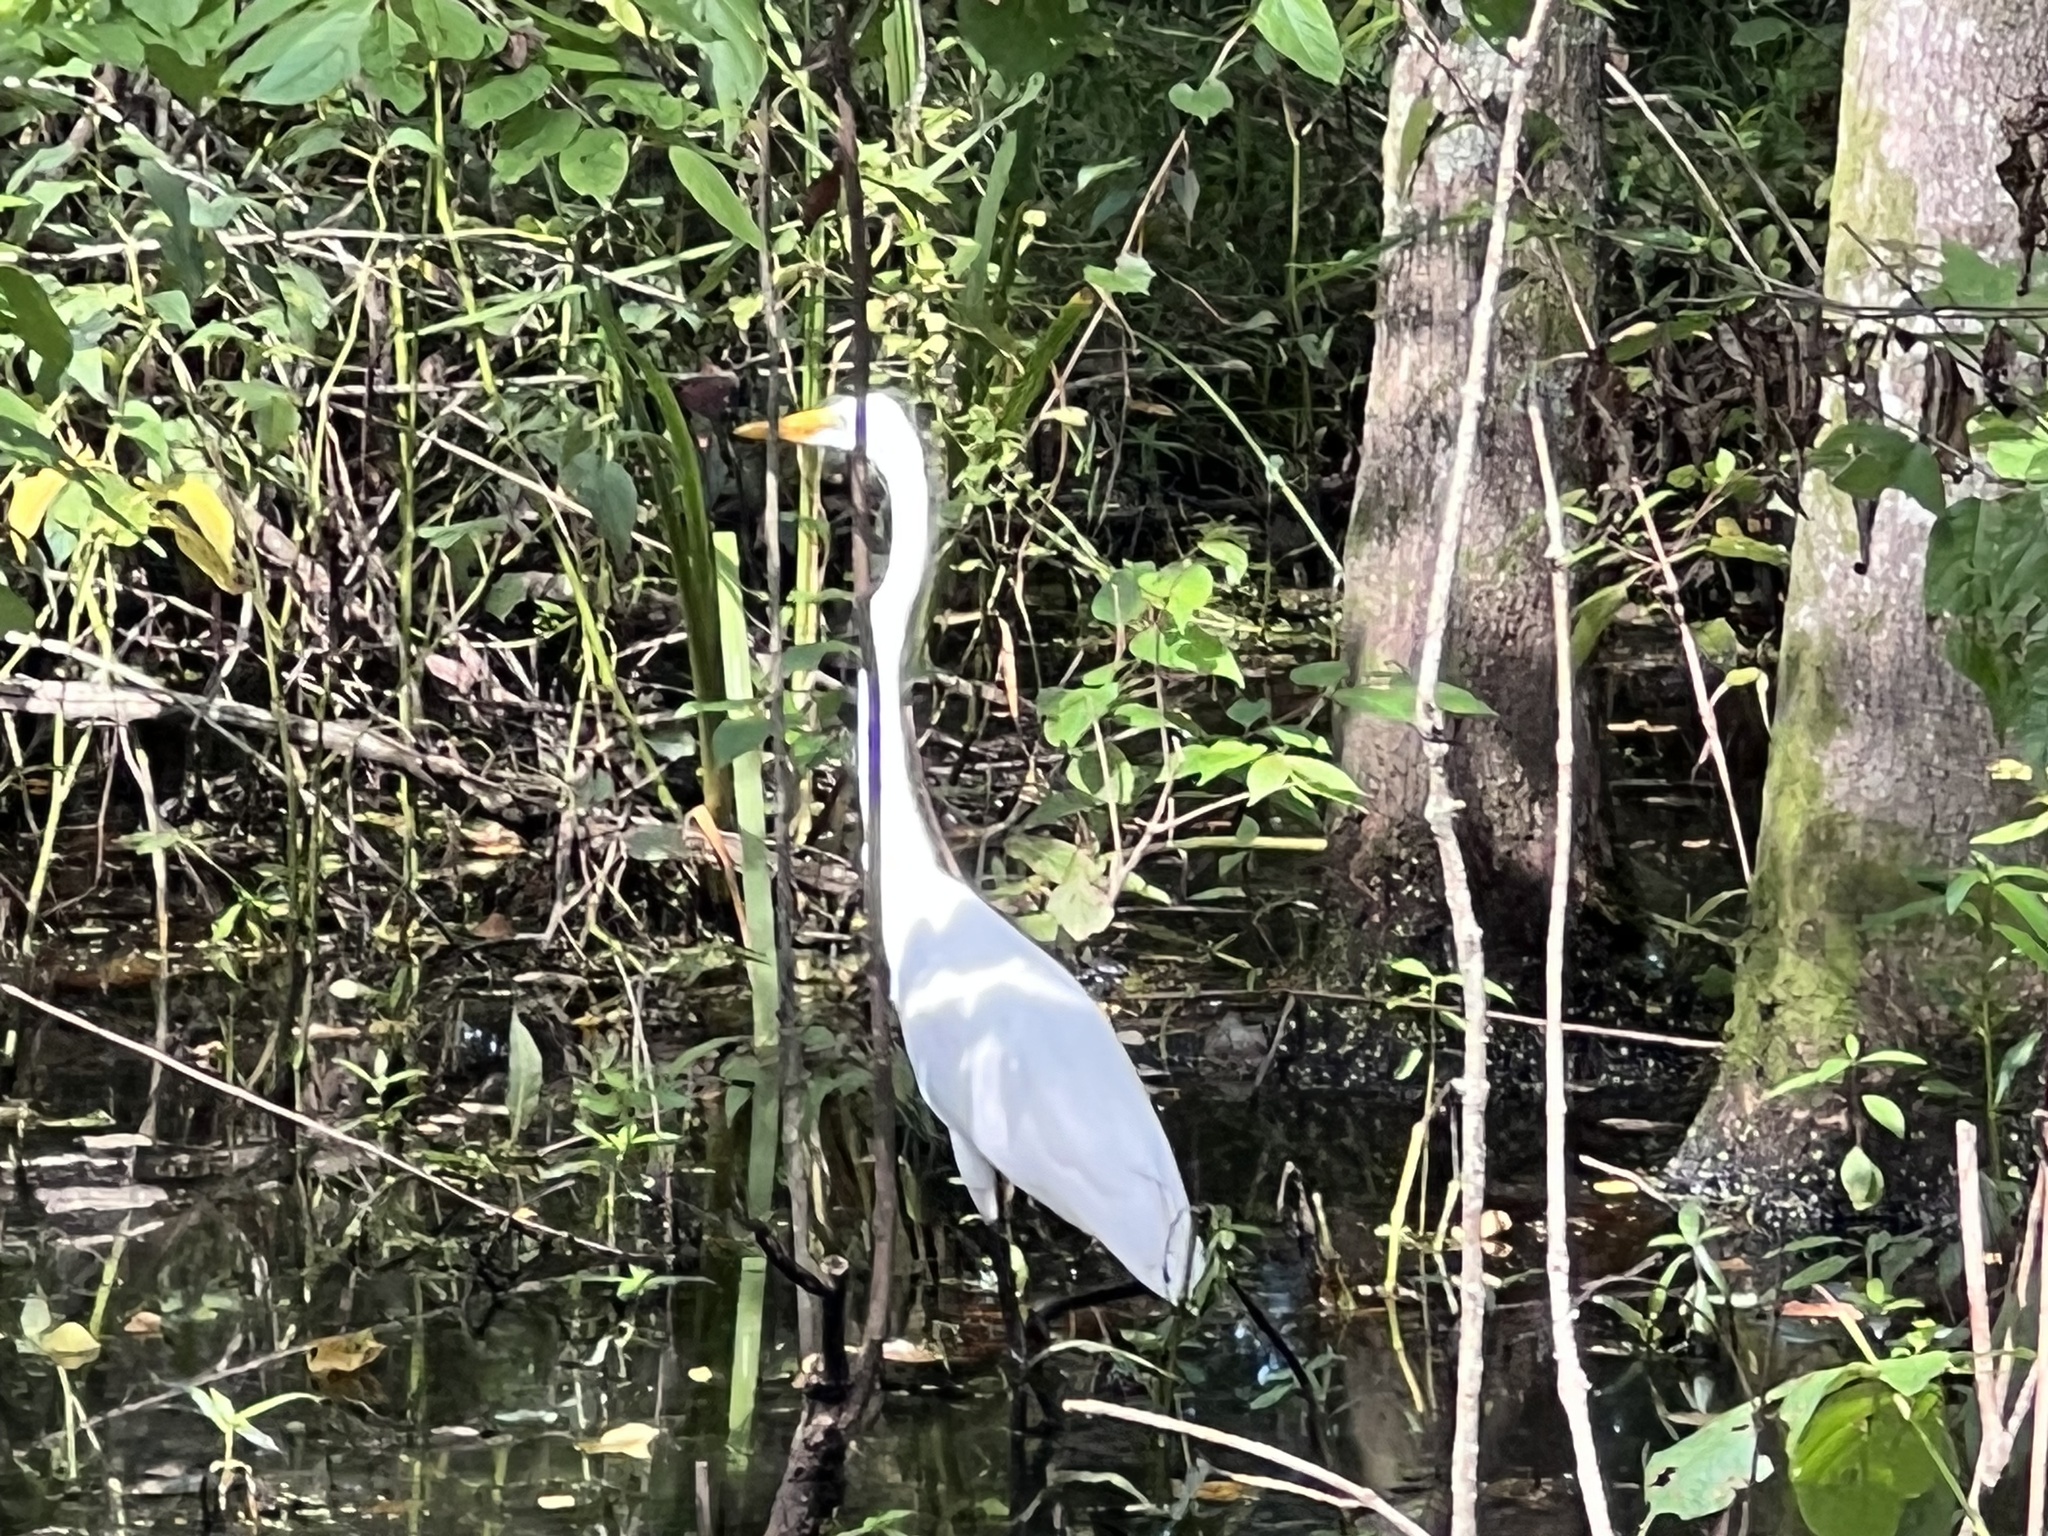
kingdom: Animalia
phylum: Chordata
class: Aves
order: Pelecaniformes
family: Ardeidae
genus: Ardea
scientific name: Ardea alba
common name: Great egret
